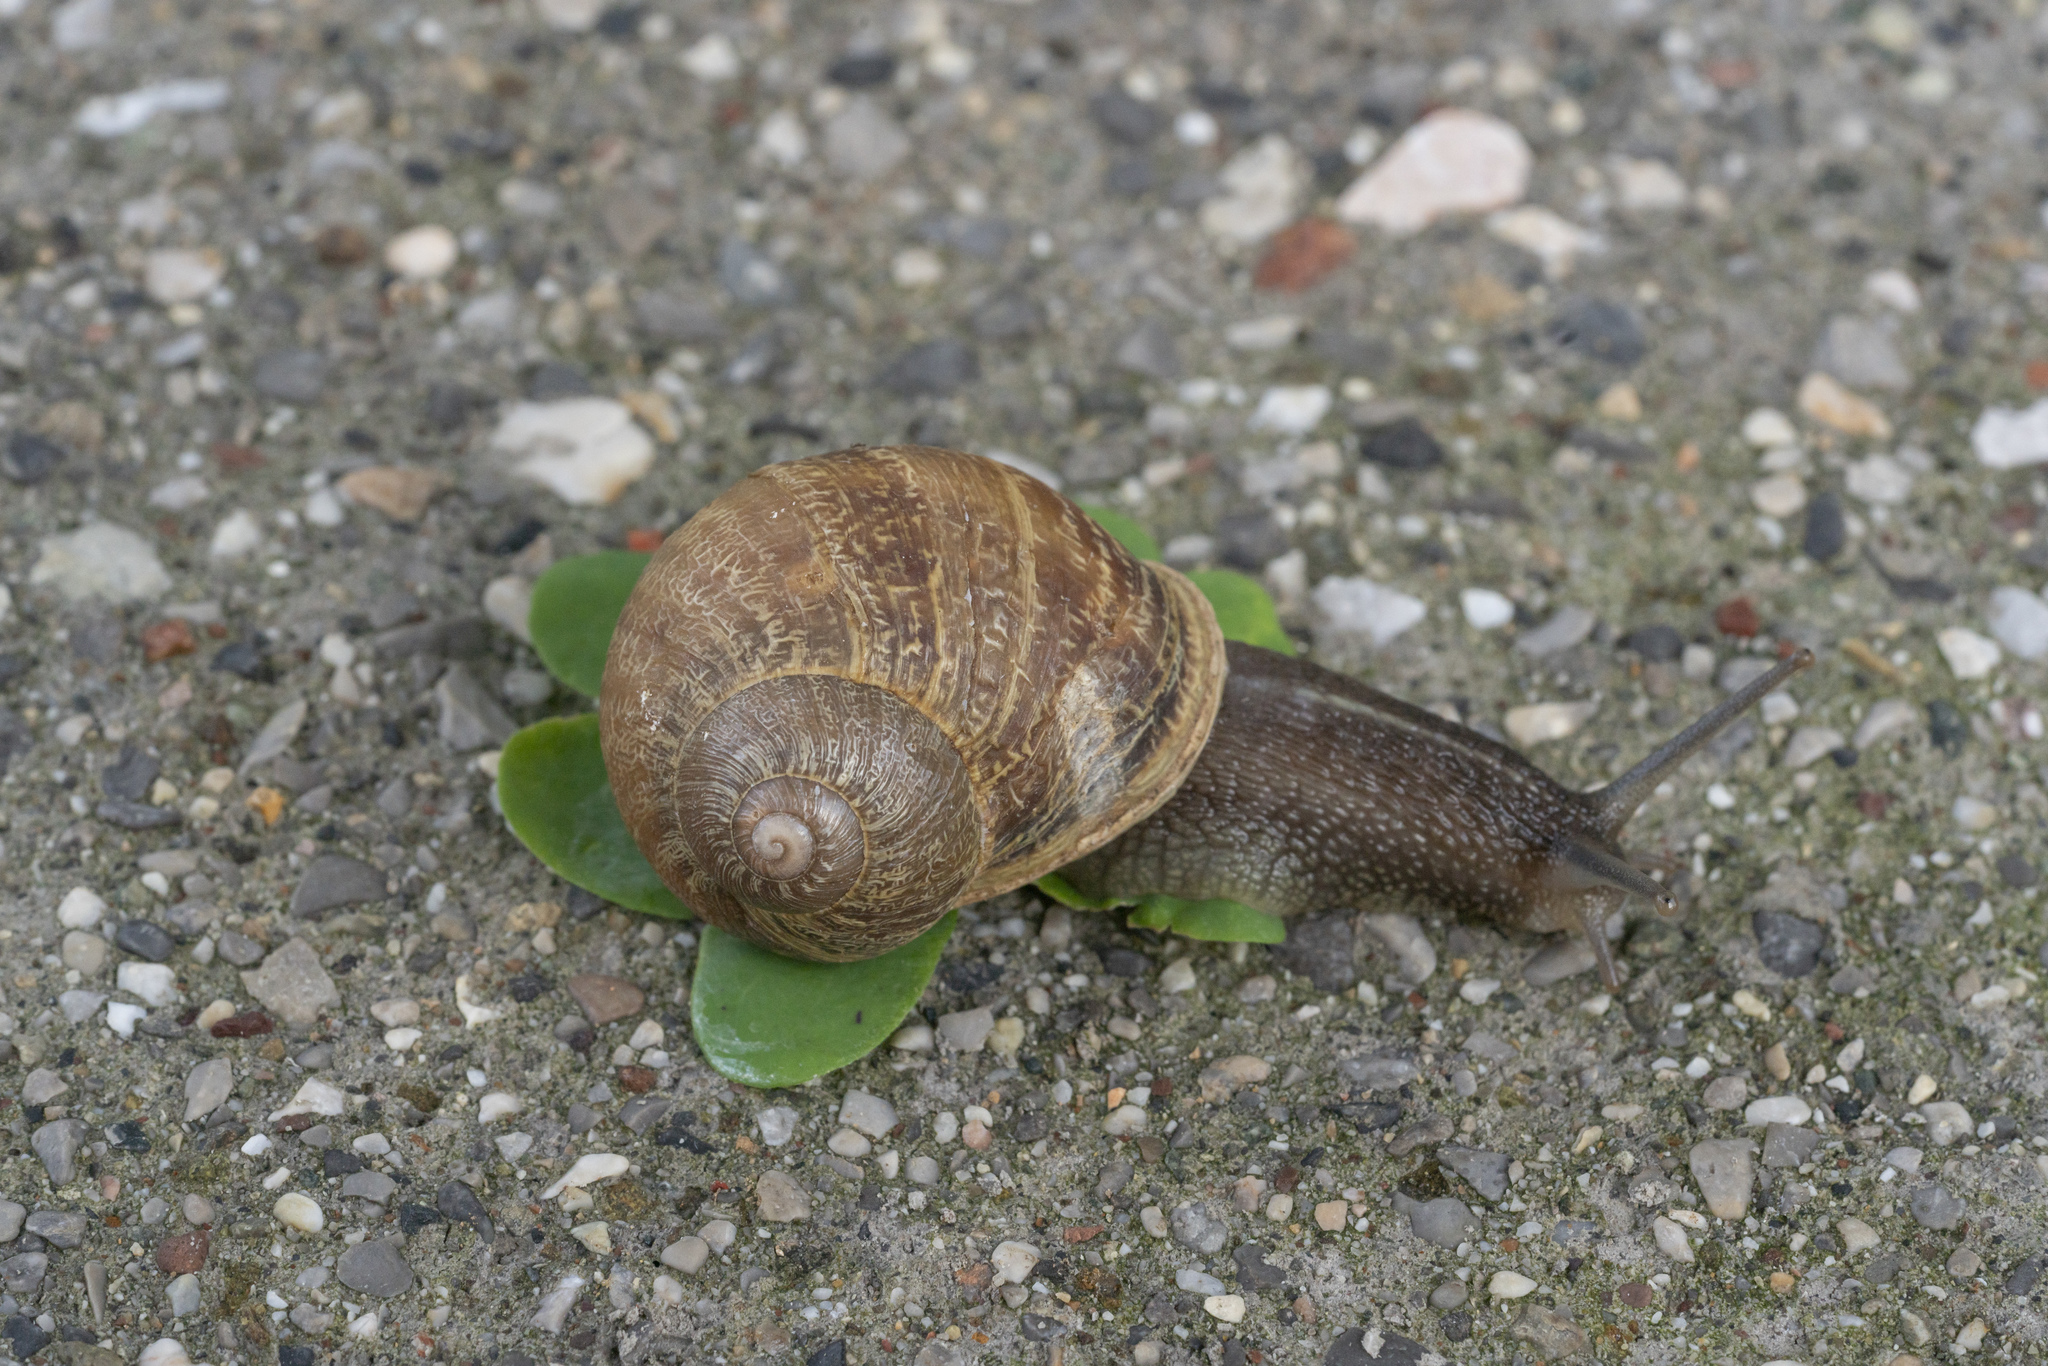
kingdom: Animalia
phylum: Mollusca
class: Gastropoda
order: Stylommatophora
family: Helicidae
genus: Cornu
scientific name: Cornu aspersum
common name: Brown garden snail
